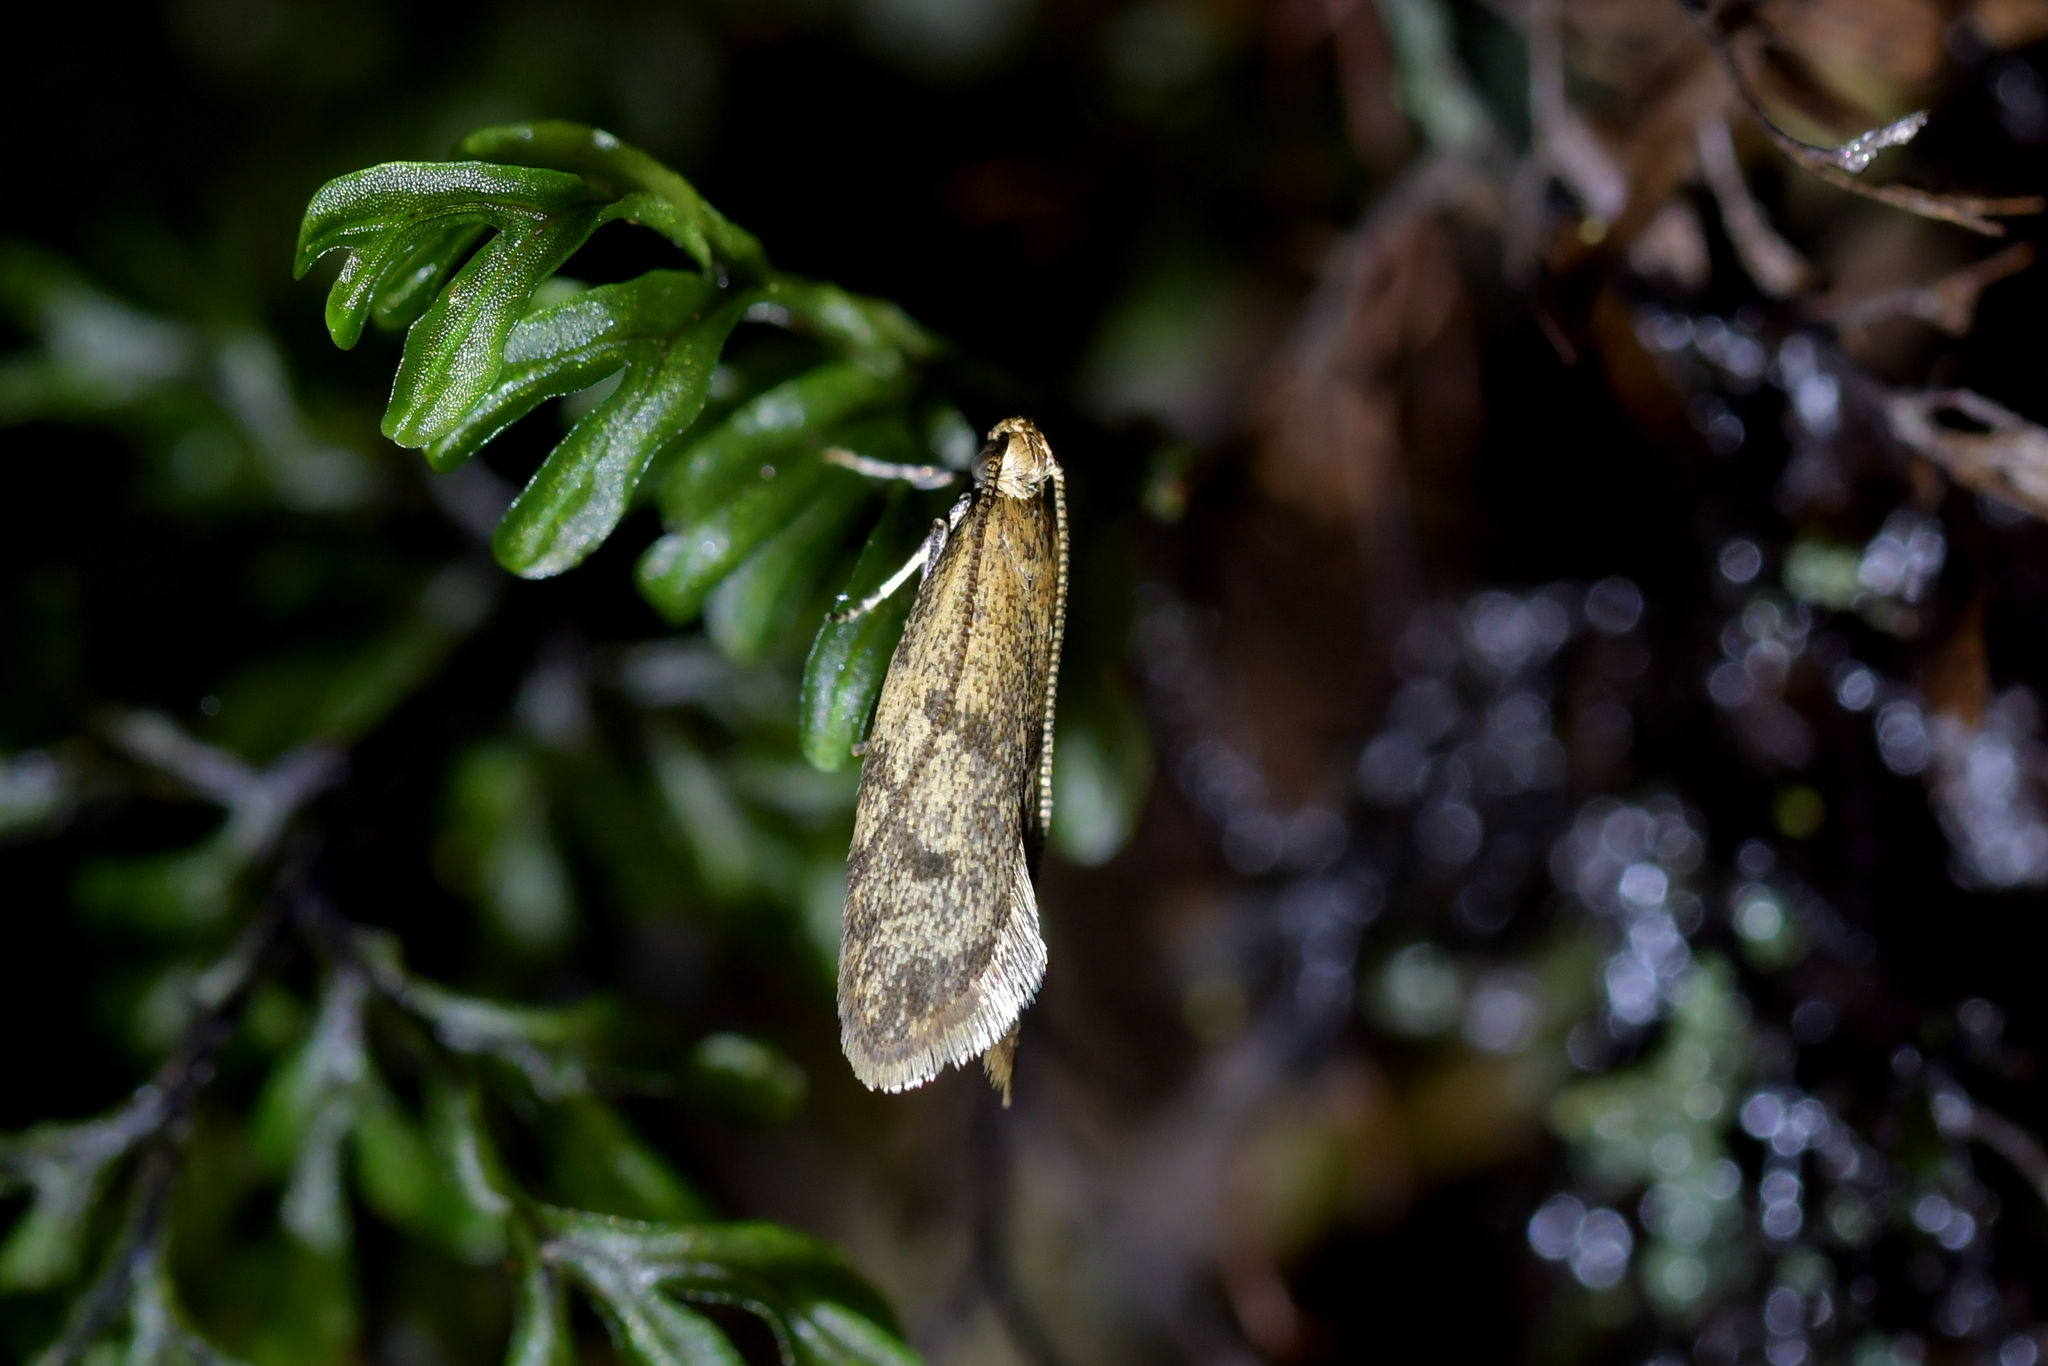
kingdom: Animalia
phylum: Arthropoda
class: Insecta
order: Lepidoptera
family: Oecophoridae
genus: Gymnobathra
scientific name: Gymnobathra tholodella
